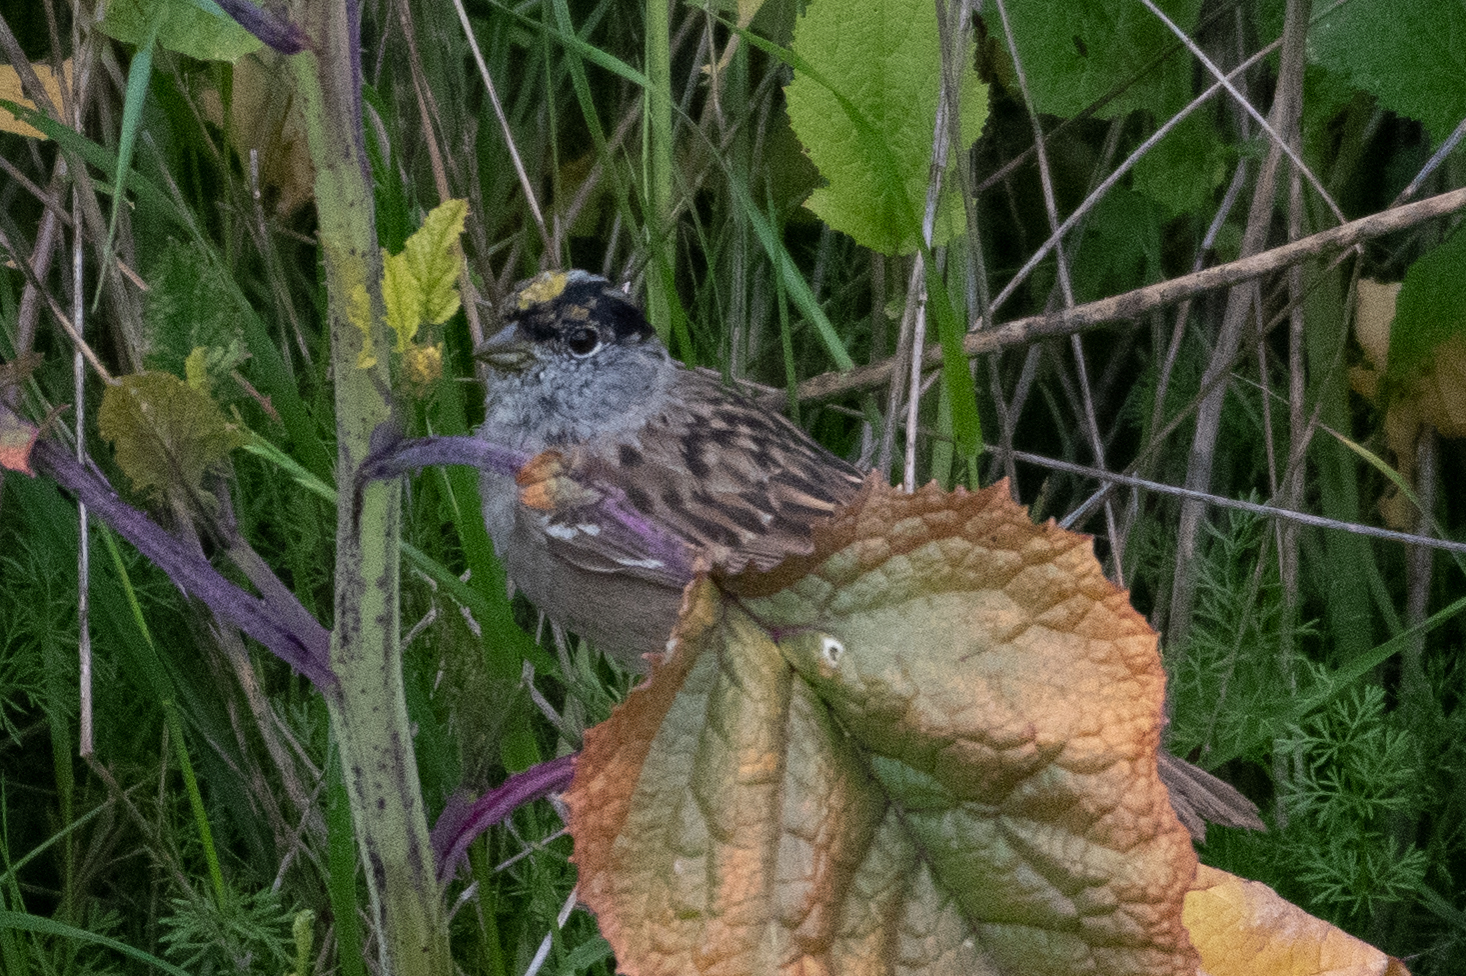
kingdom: Animalia
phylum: Chordata
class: Aves
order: Passeriformes
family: Passerellidae
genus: Zonotrichia
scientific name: Zonotrichia atricapilla
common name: Golden-crowned sparrow
